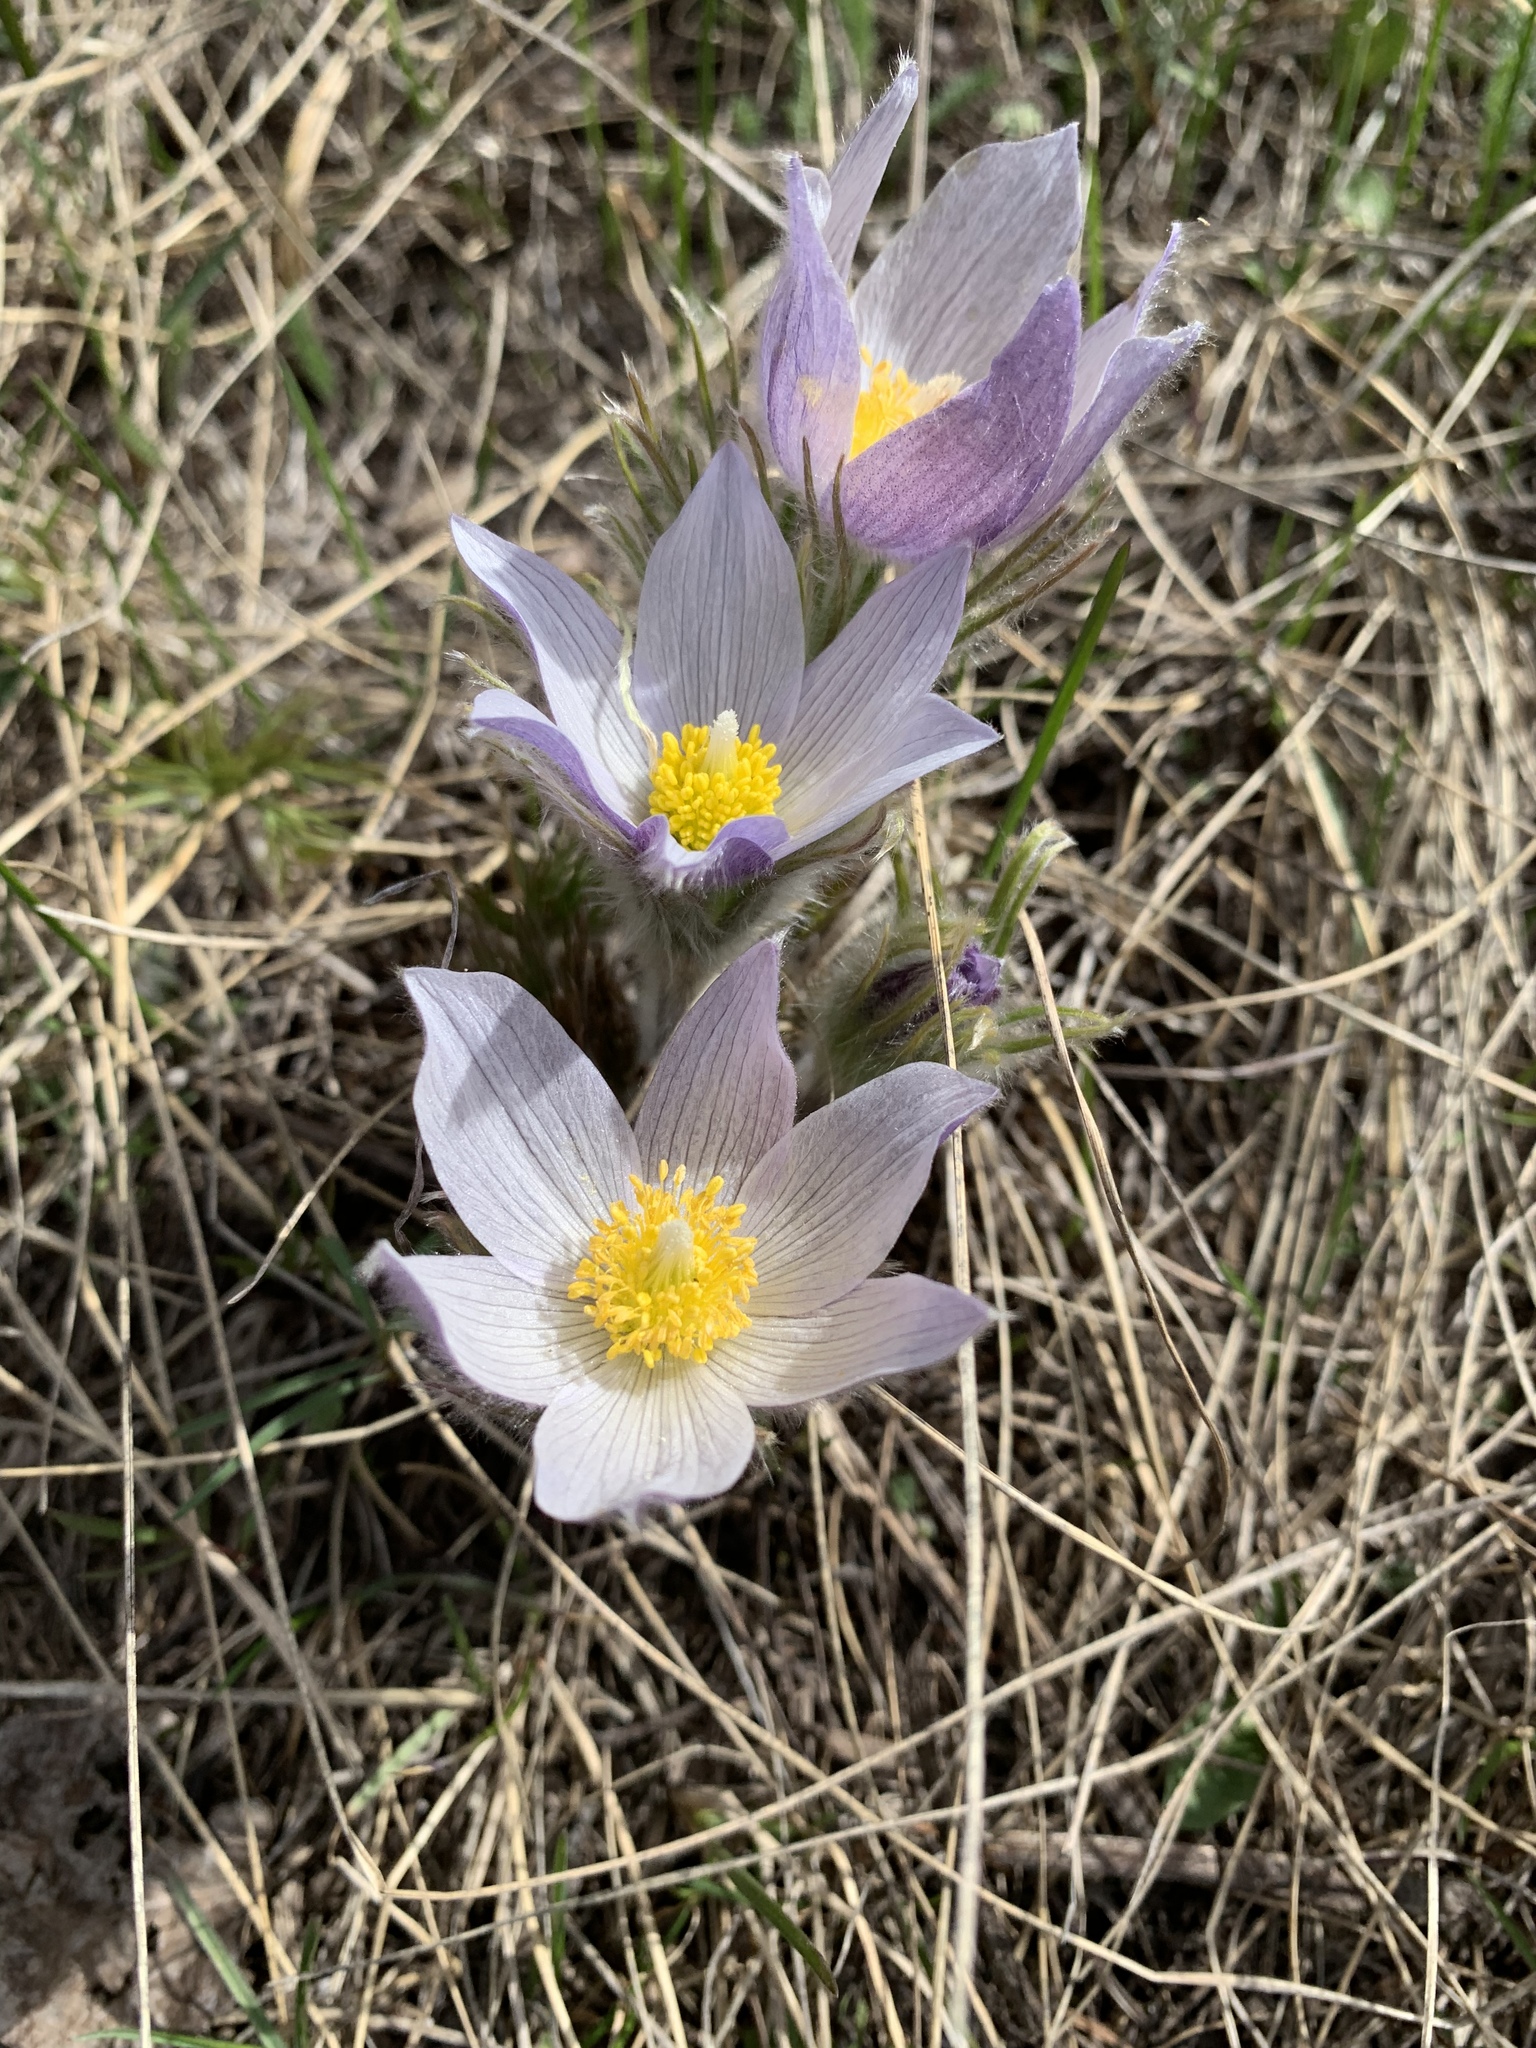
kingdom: Plantae
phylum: Tracheophyta
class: Magnoliopsida
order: Ranunculales
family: Ranunculaceae
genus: Pulsatilla
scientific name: Pulsatilla nuttalliana
